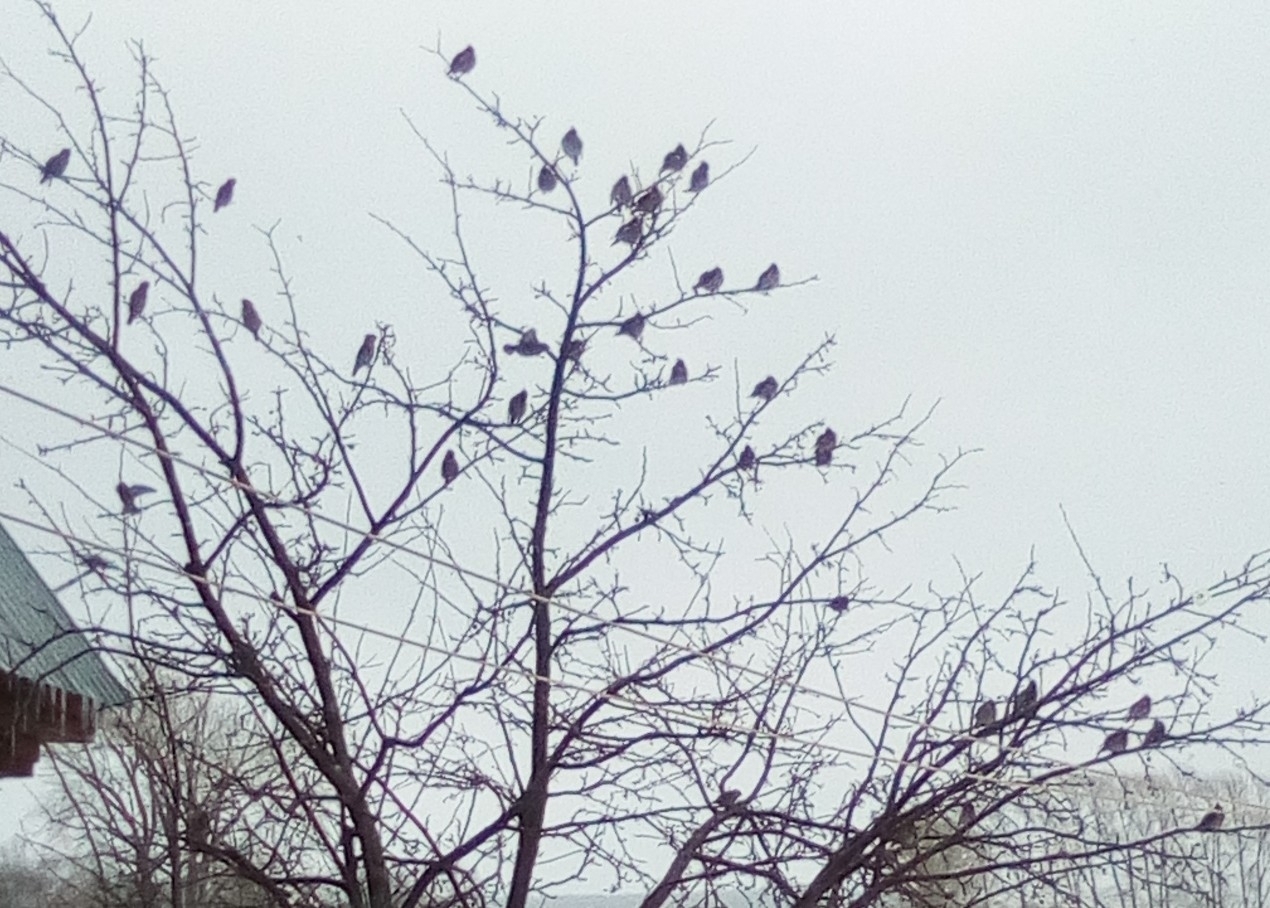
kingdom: Animalia
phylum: Chordata
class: Aves
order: Passeriformes
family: Bombycillidae
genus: Bombycilla
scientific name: Bombycilla garrulus
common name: Bohemian waxwing
